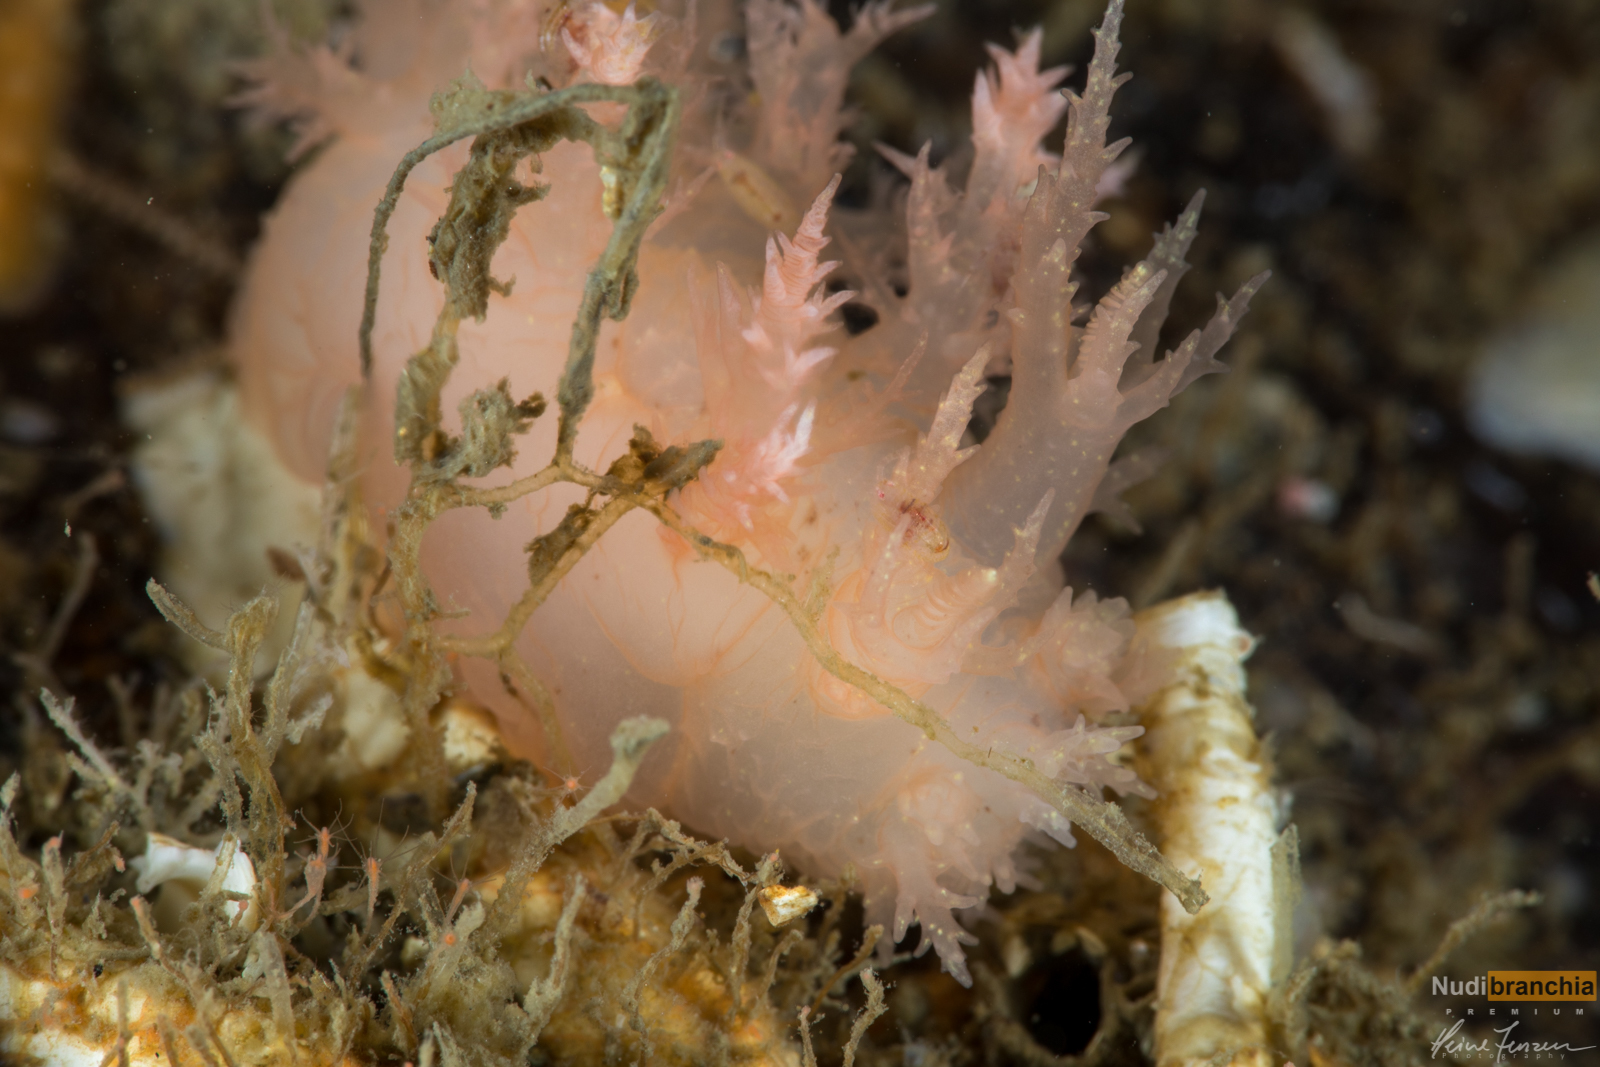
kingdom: Animalia
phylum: Mollusca
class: Gastropoda
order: Nudibranchia
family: Dendronotidae
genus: Dendronotus
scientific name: Dendronotus europaeus
